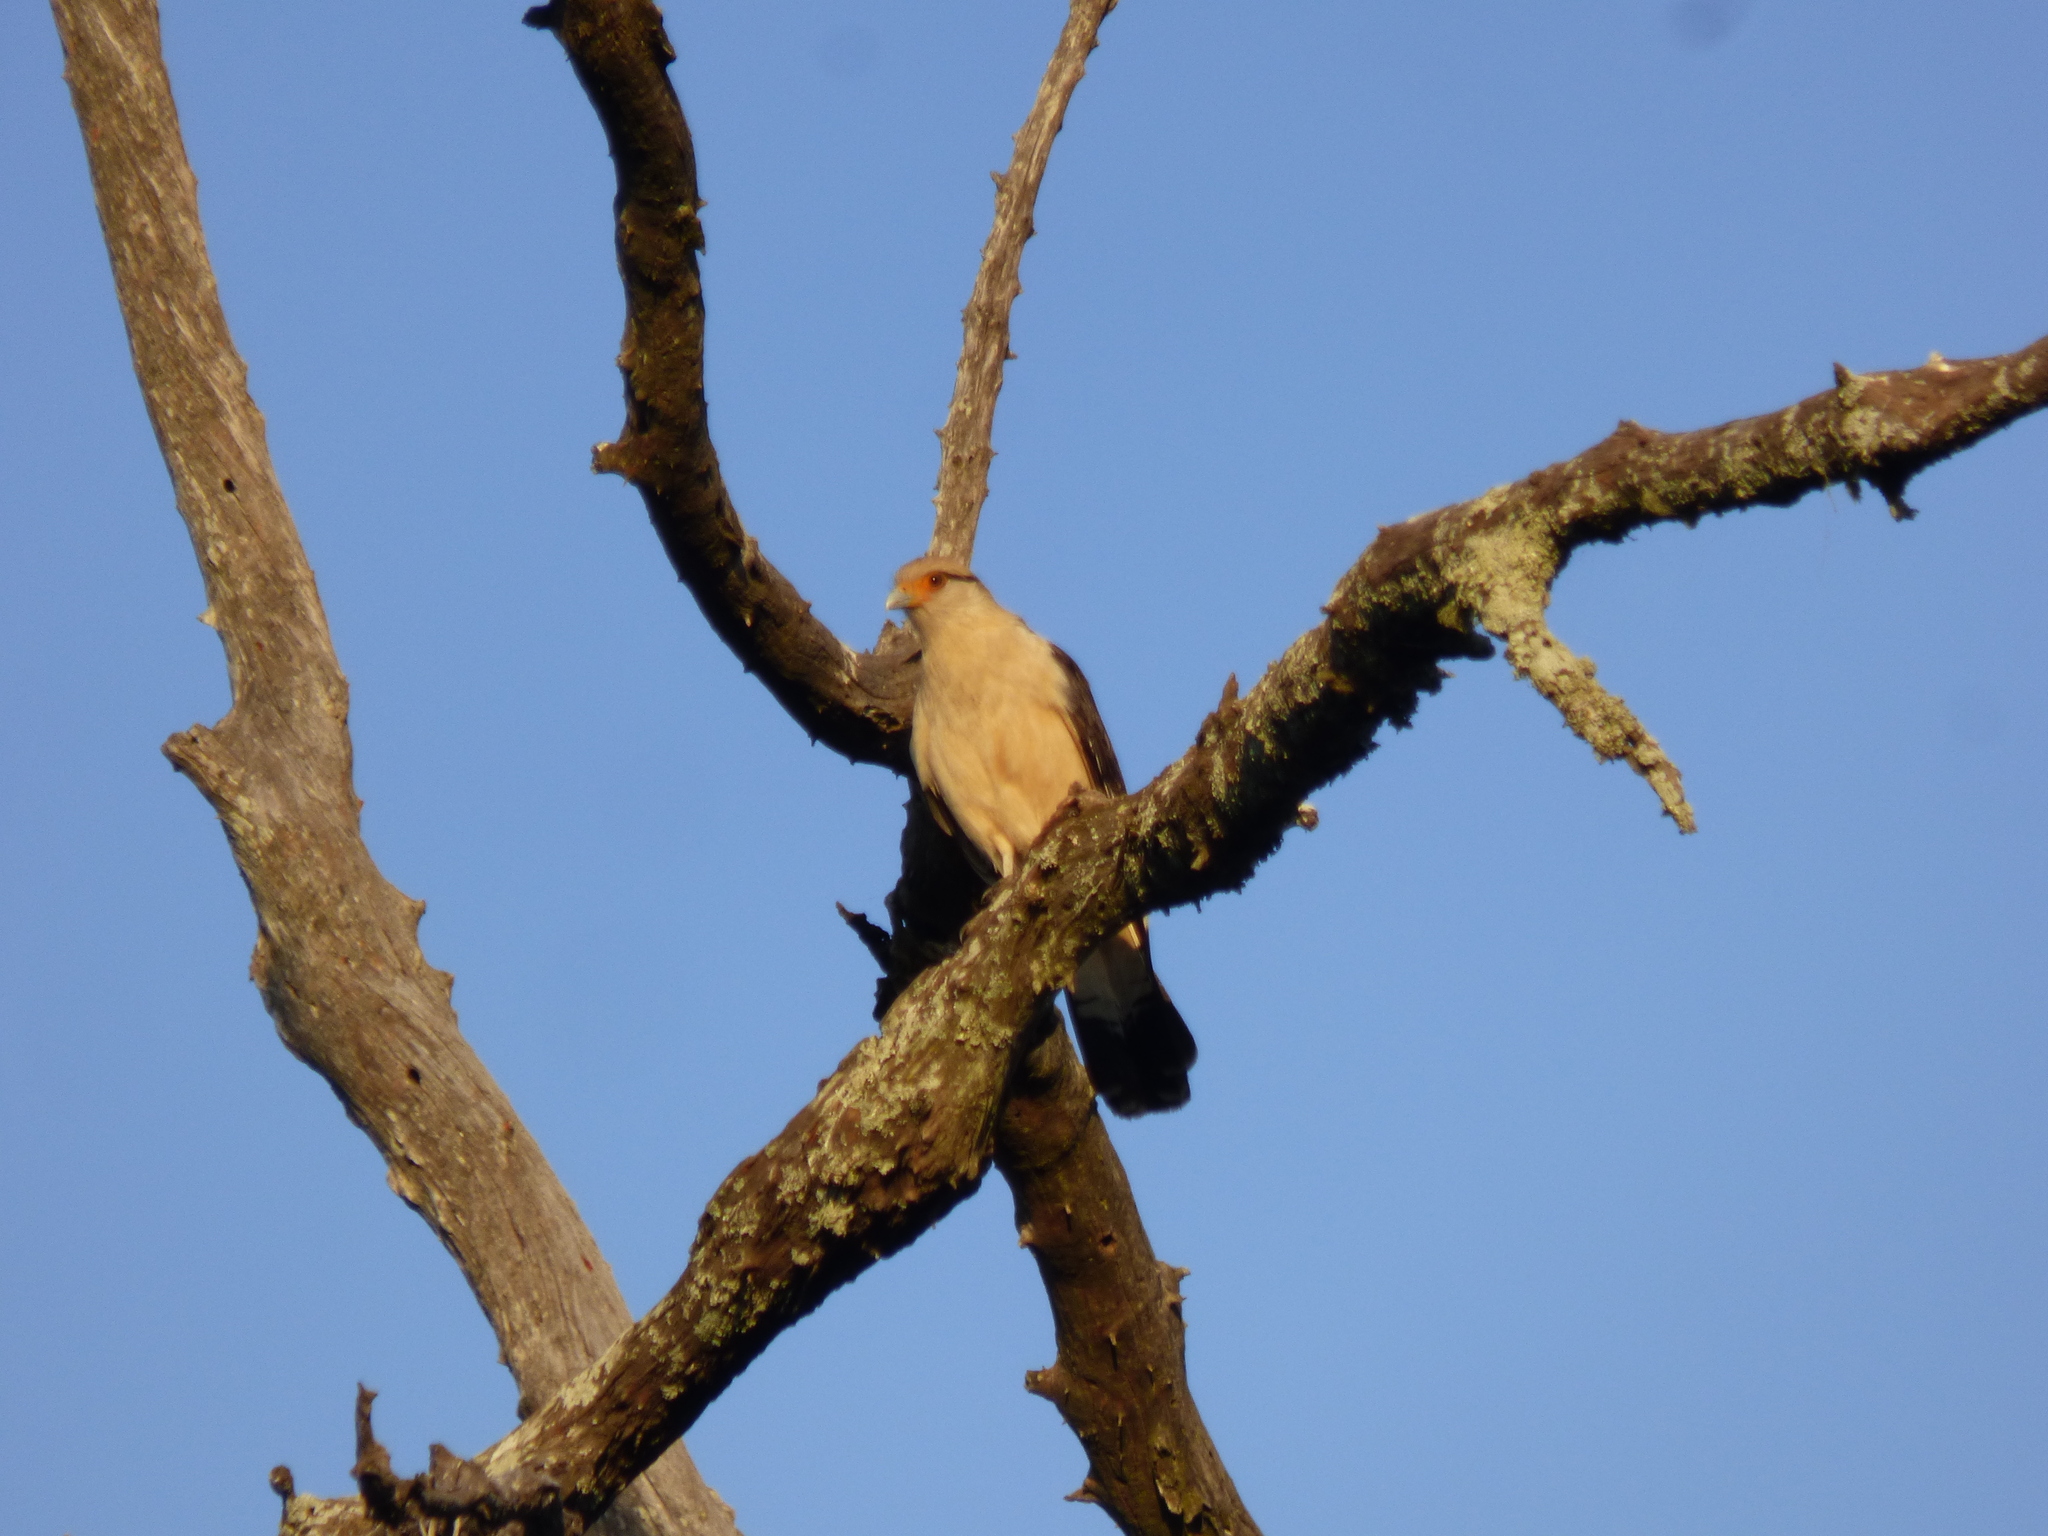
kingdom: Animalia
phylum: Chordata
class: Aves
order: Falconiformes
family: Falconidae
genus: Daptrius
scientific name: Daptrius
